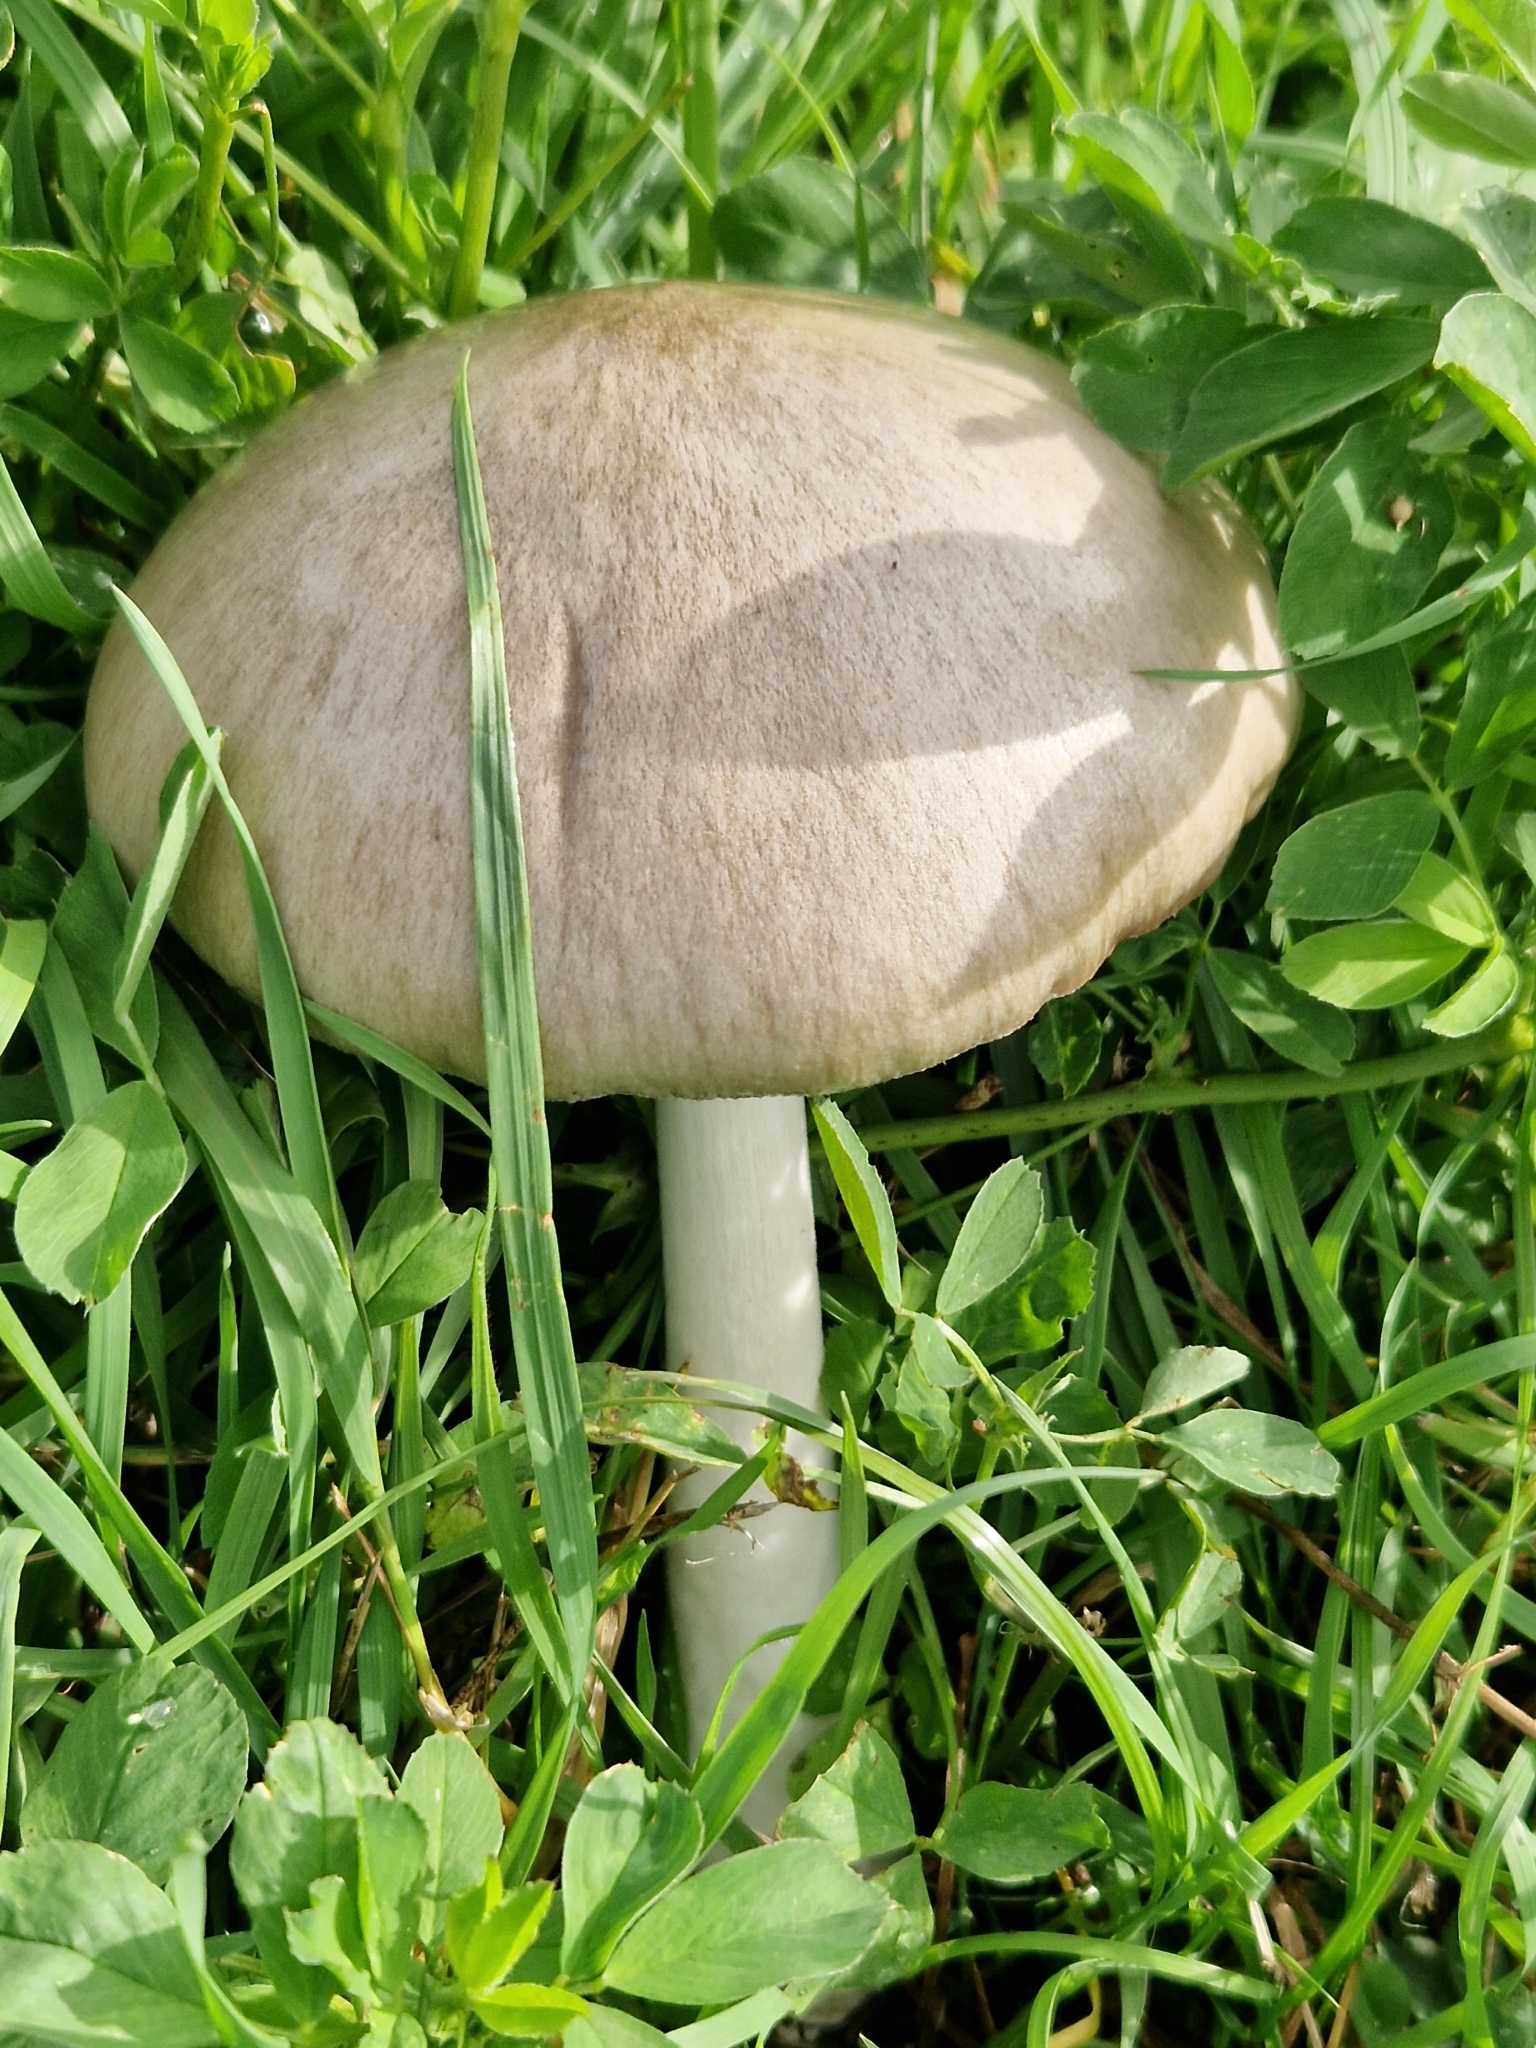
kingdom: Fungi
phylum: Basidiomycota
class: Agaricomycetes
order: Agaricales
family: Pluteaceae
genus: Volvopluteus
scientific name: Volvopluteus gloiocephalus
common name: Stubble rosegill
